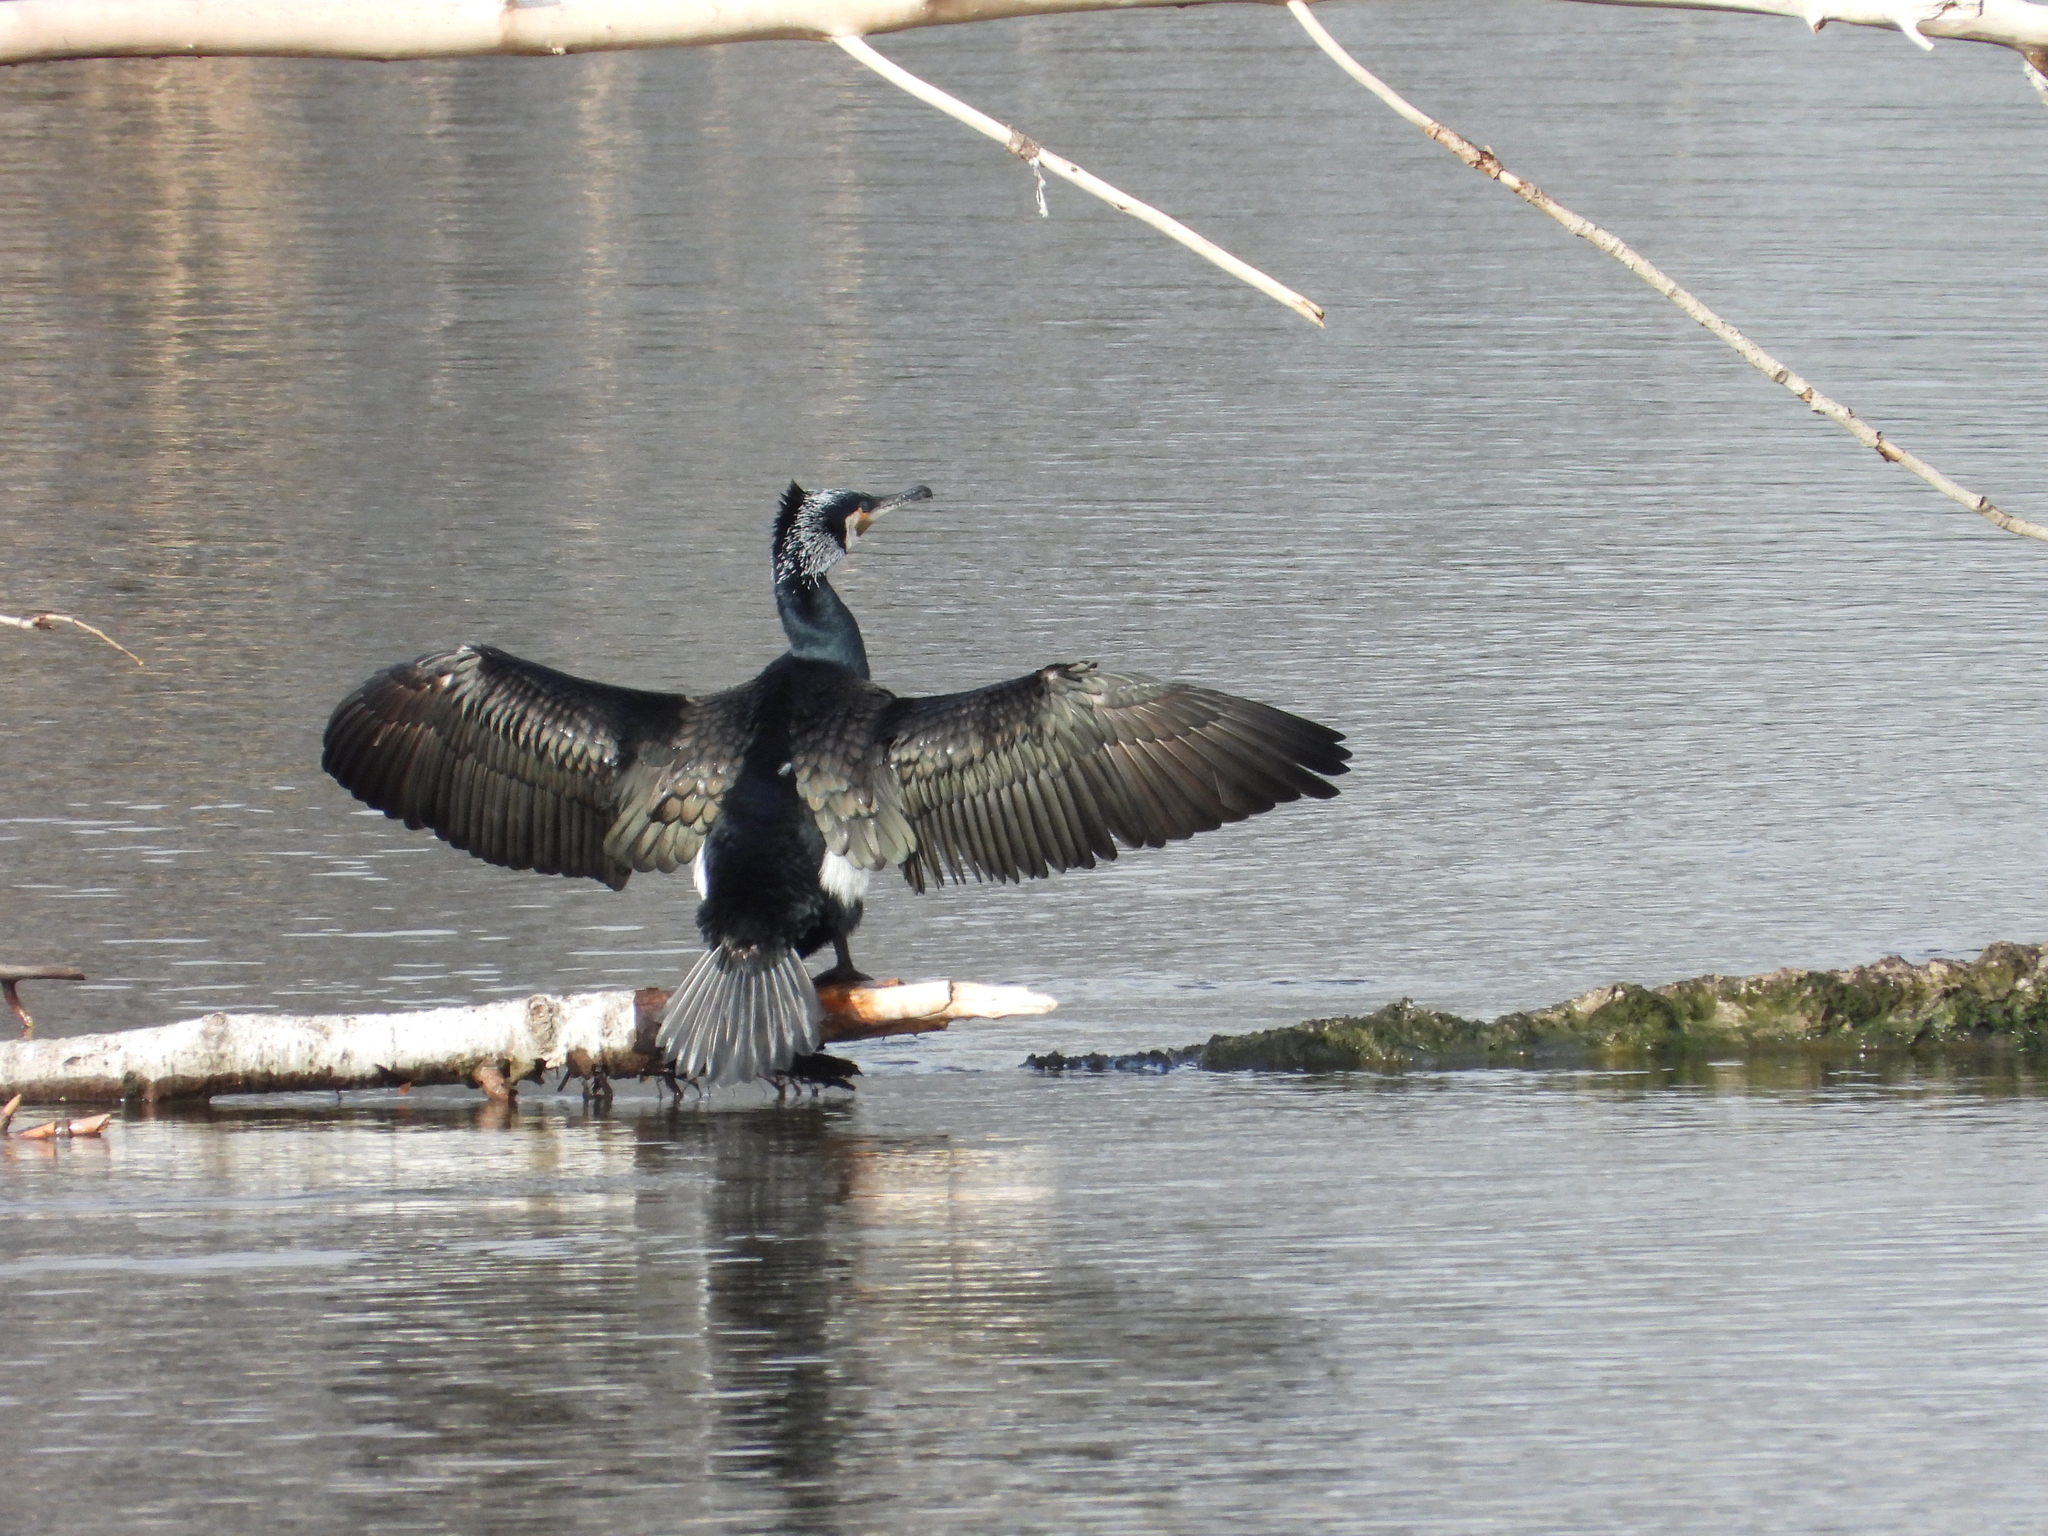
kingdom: Animalia
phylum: Chordata
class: Aves
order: Suliformes
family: Phalacrocoracidae
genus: Phalacrocorax
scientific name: Phalacrocorax carbo
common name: Great cormorant
